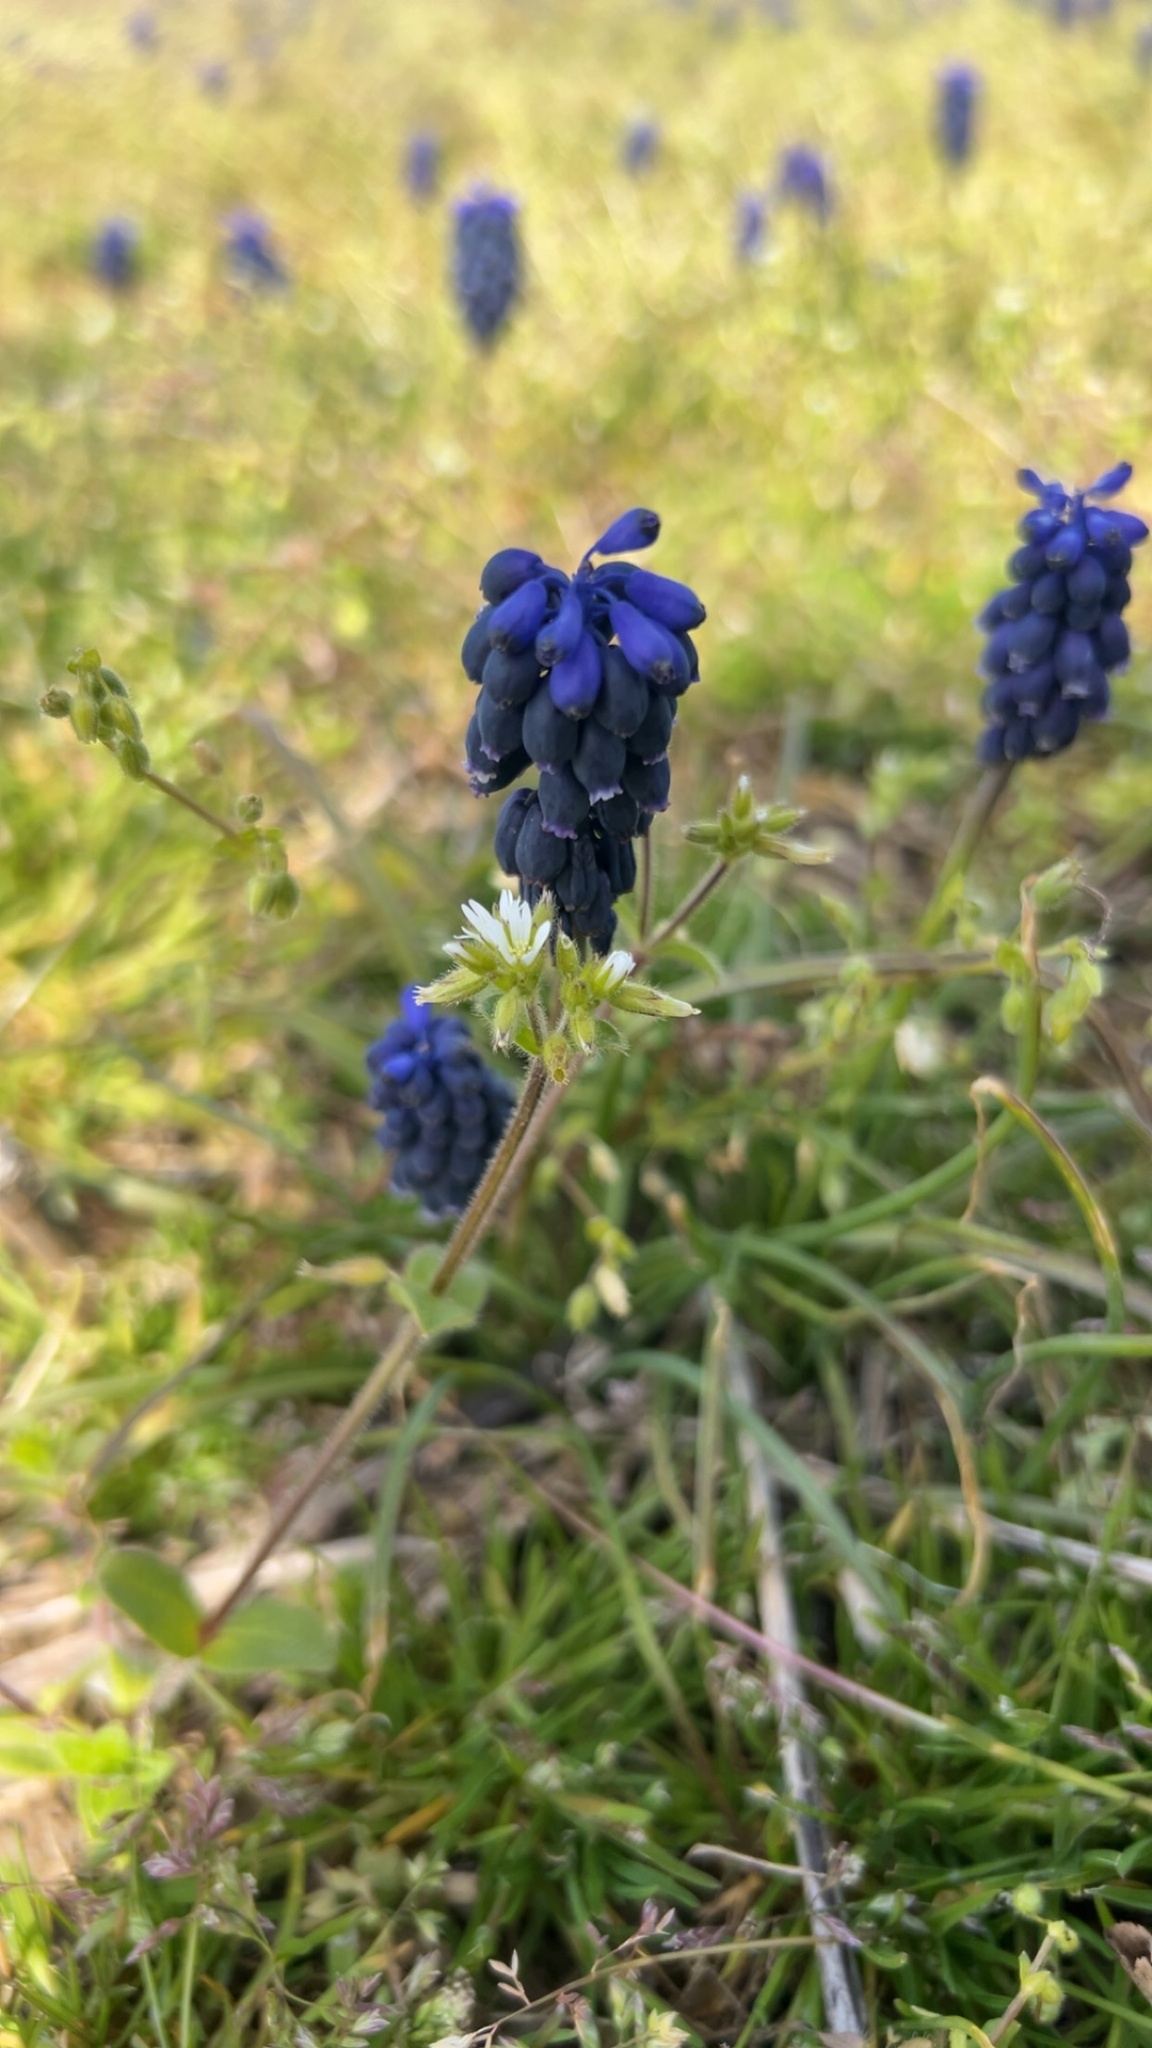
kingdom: Plantae
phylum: Tracheophyta
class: Liliopsida
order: Asparagales
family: Asparagaceae
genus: Muscari
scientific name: Muscari neglectum
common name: Grape-hyacinth
